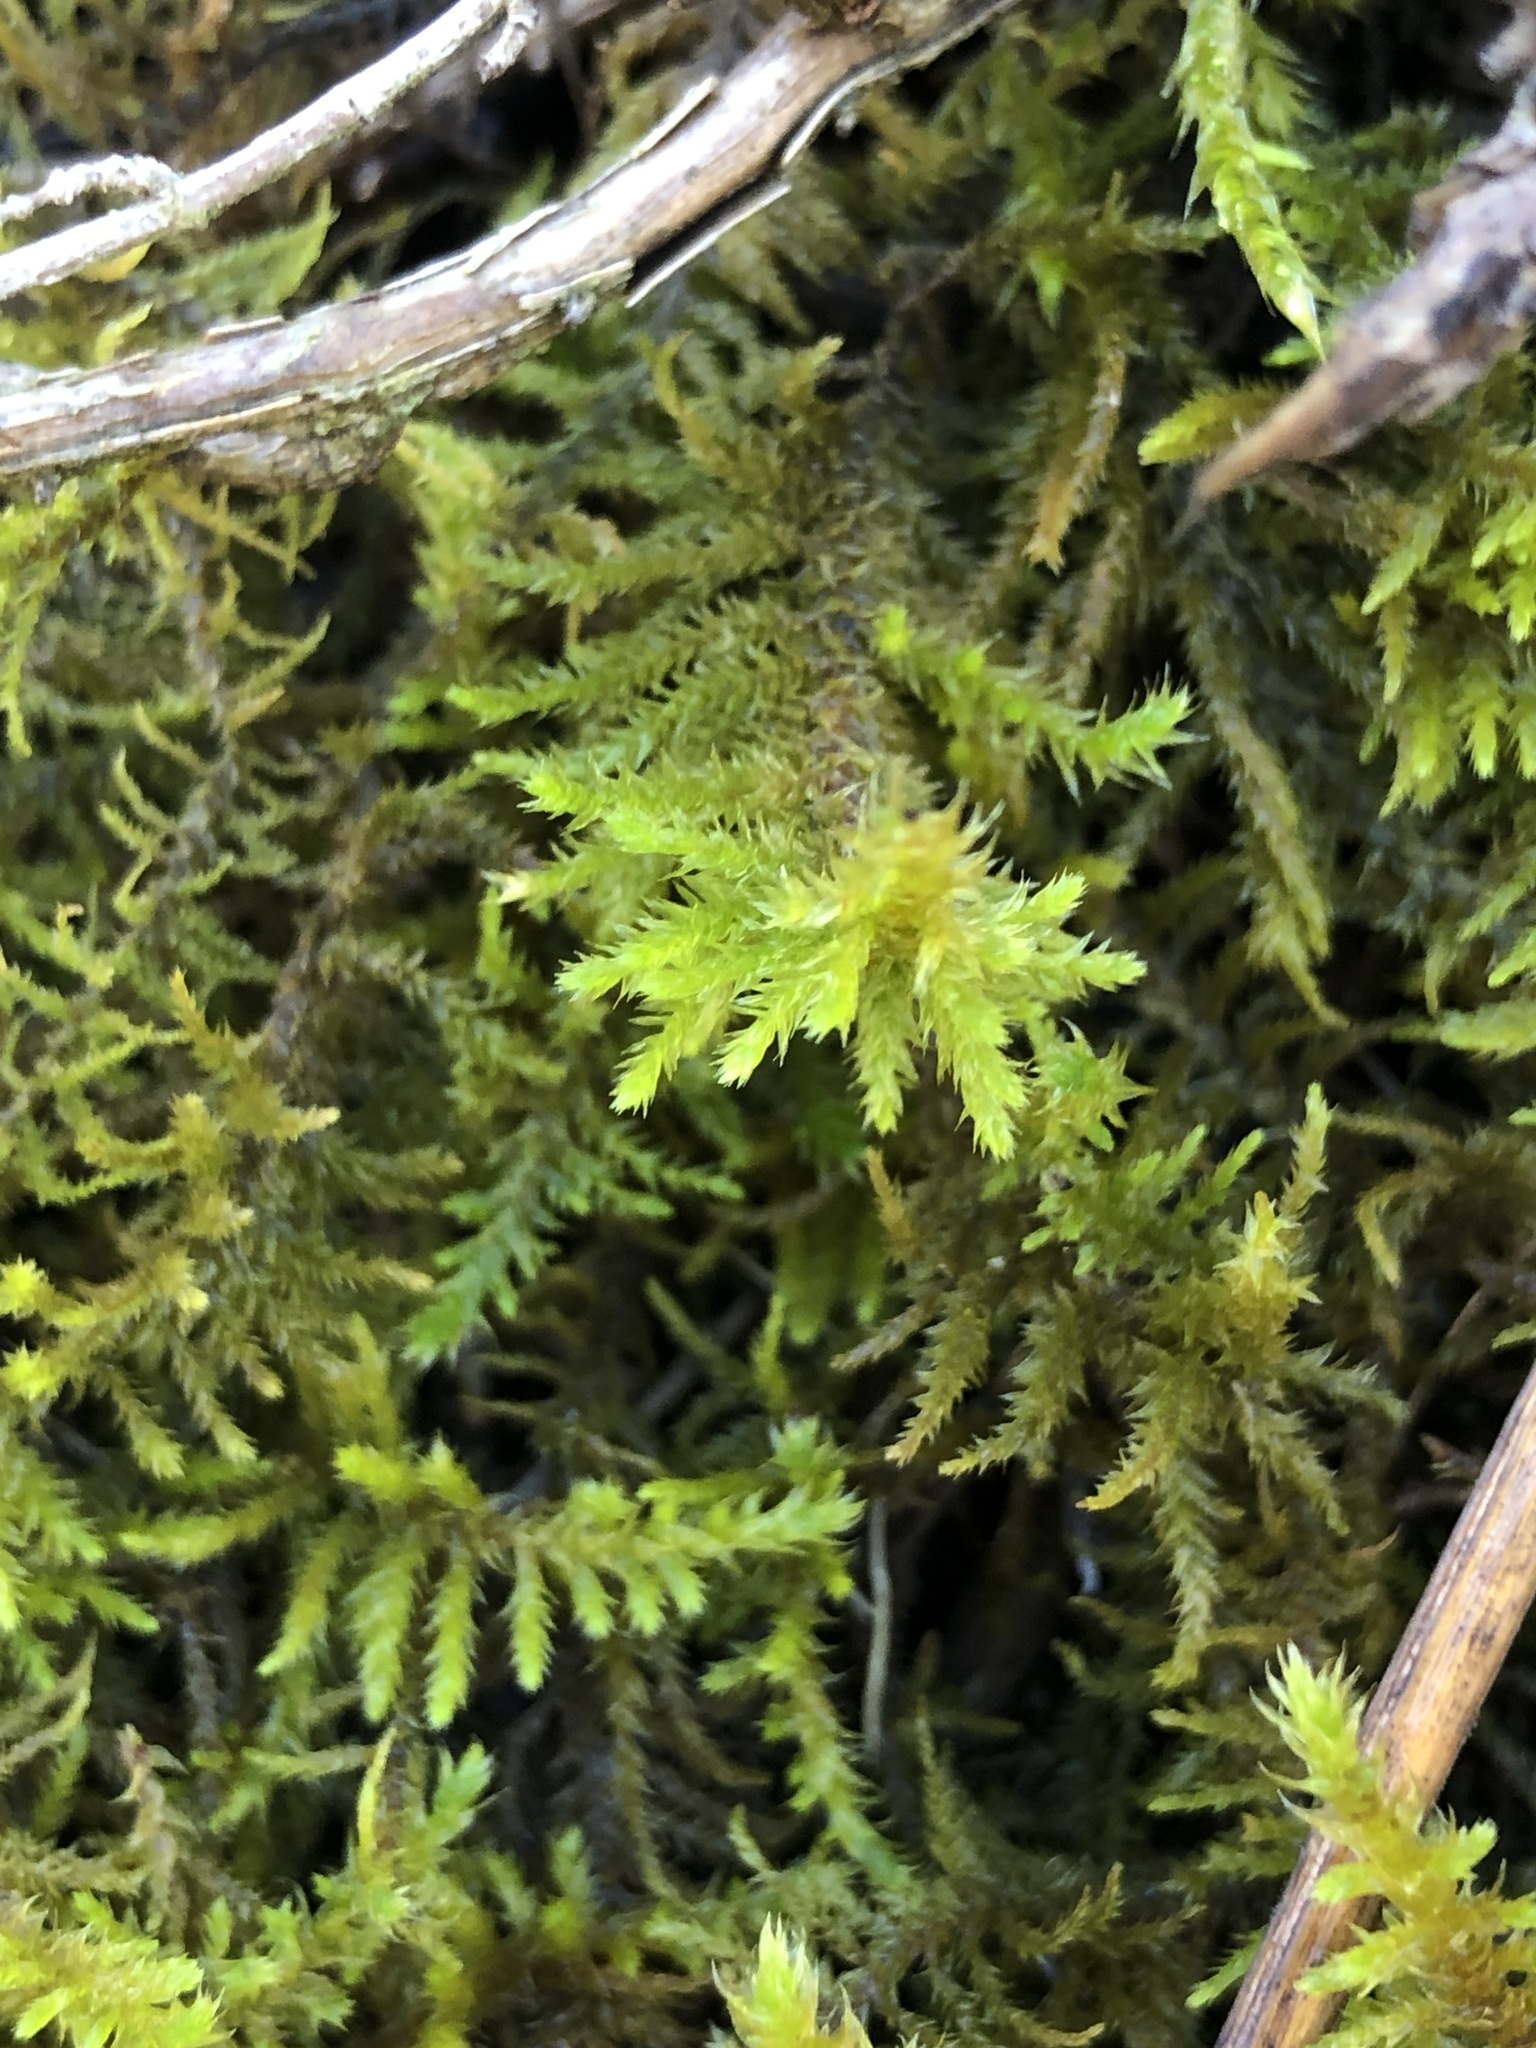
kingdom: Plantae
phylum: Bryophyta
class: Bryopsida
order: Hypnales
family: Thuidiaceae
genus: Abietinella
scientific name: Abietinella abietina
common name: Wiry fern moss
